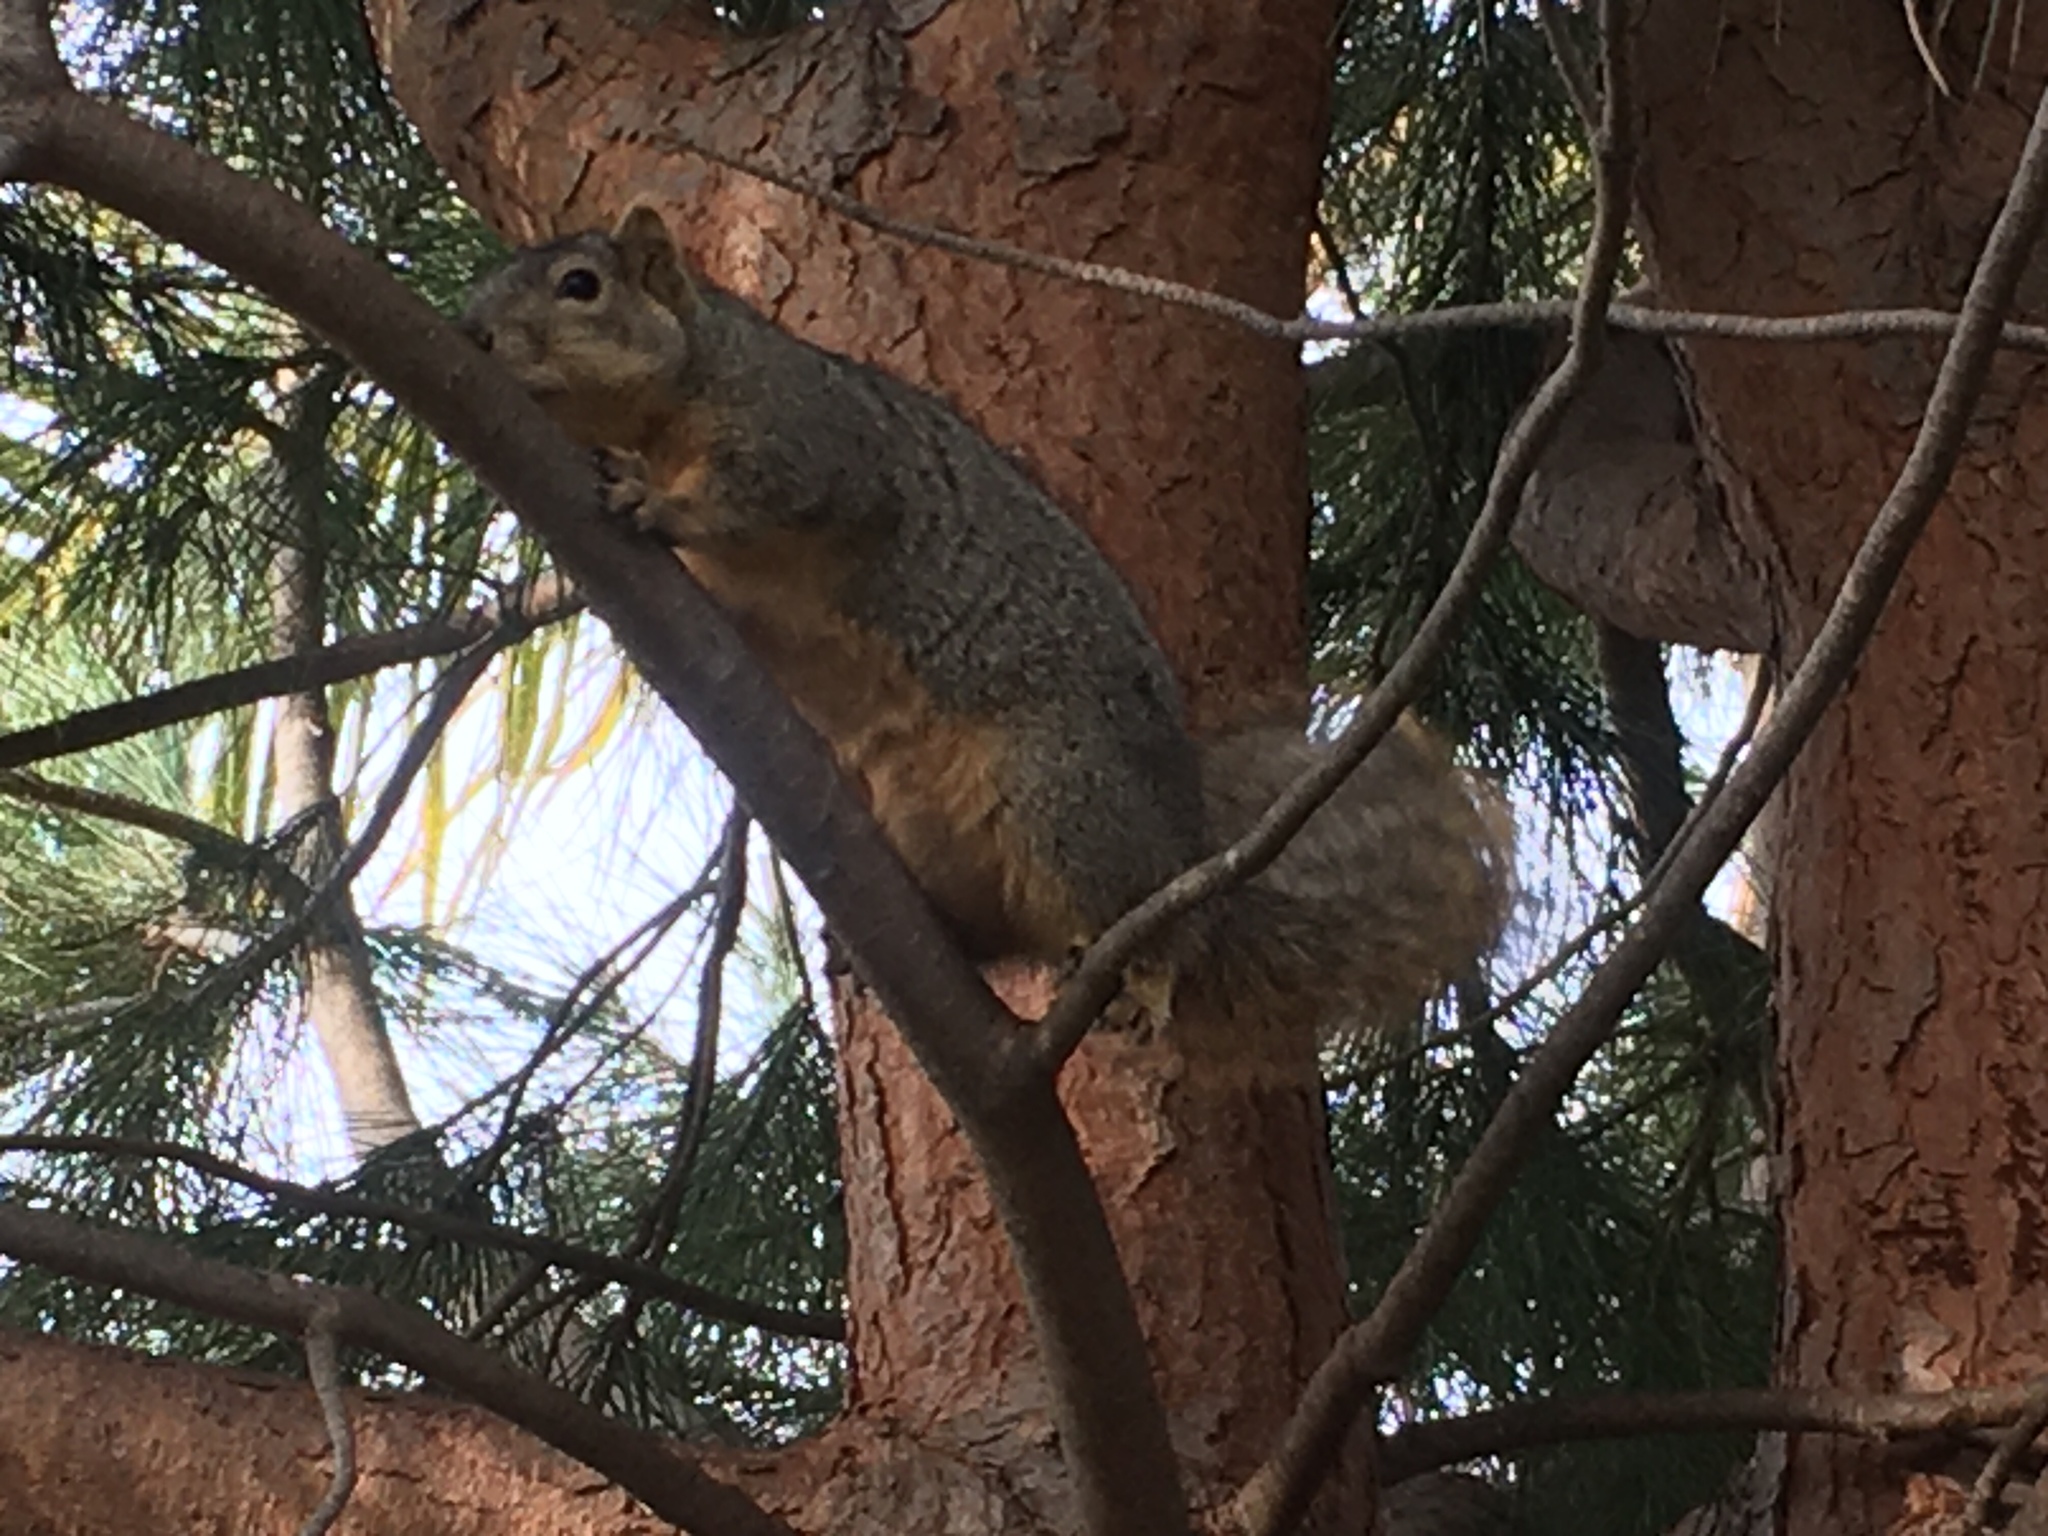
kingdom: Animalia
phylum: Chordata
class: Mammalia
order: Rodentia
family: Sciuridae
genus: Sciurus
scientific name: Sciurus niger
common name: Fox squirrel
